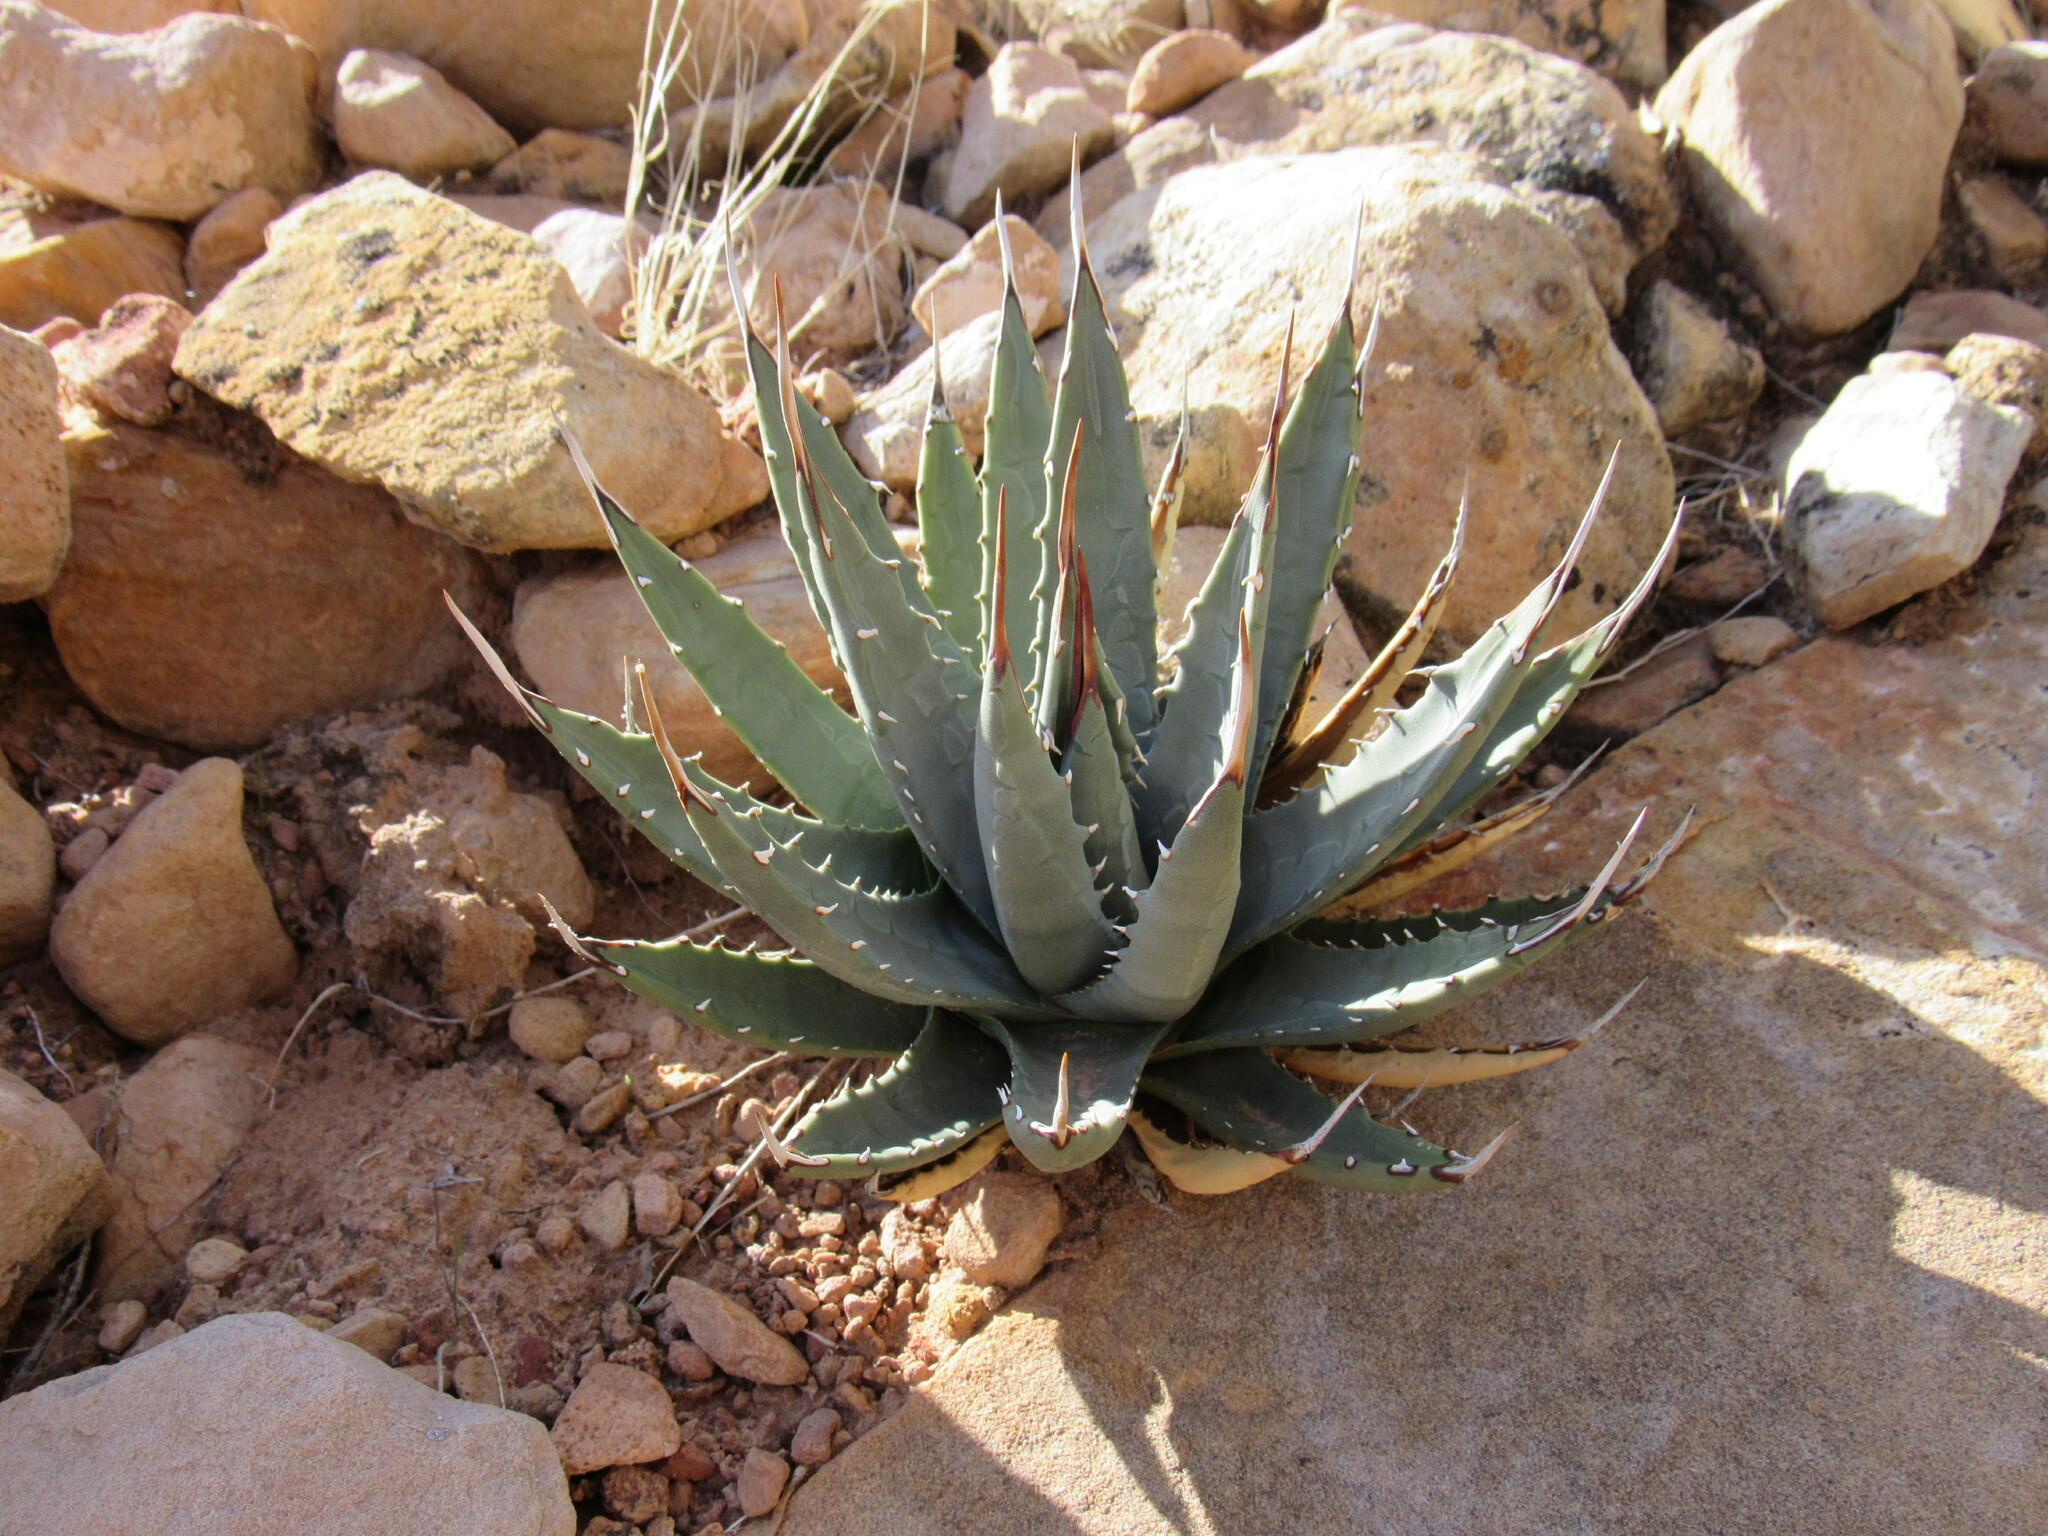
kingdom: Plantae
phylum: Tracheophyta
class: Liliopsida
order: Asparagales
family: Asparagaceae
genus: Agave
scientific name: Agave utahensis
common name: Utah agave
